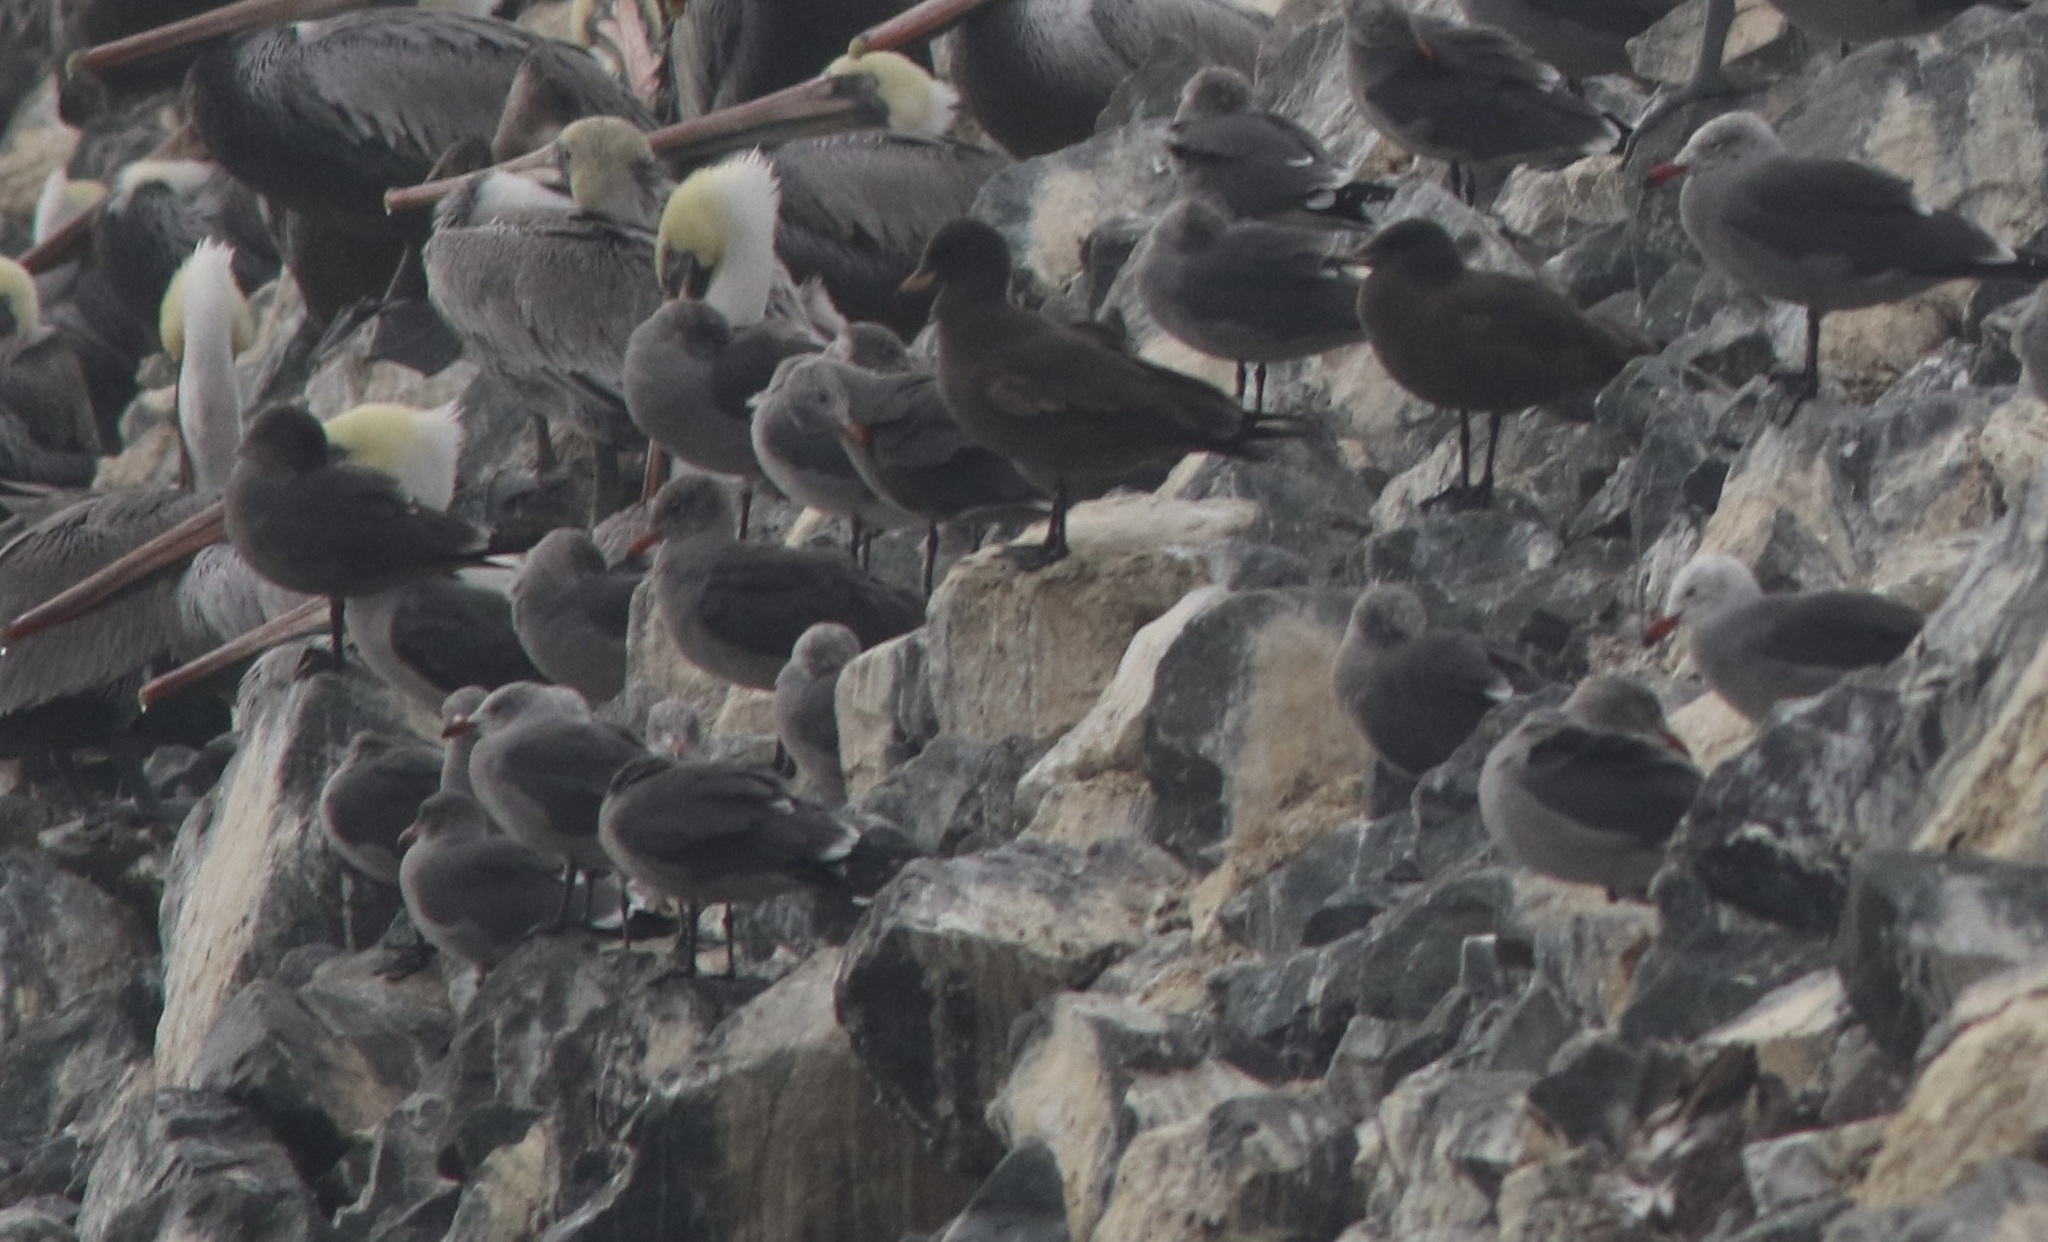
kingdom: Animalia
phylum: Chordata
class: Aves
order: Charadriiformes
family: Laridae
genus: Larus
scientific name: Larus heermanni
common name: Heermann's gull
